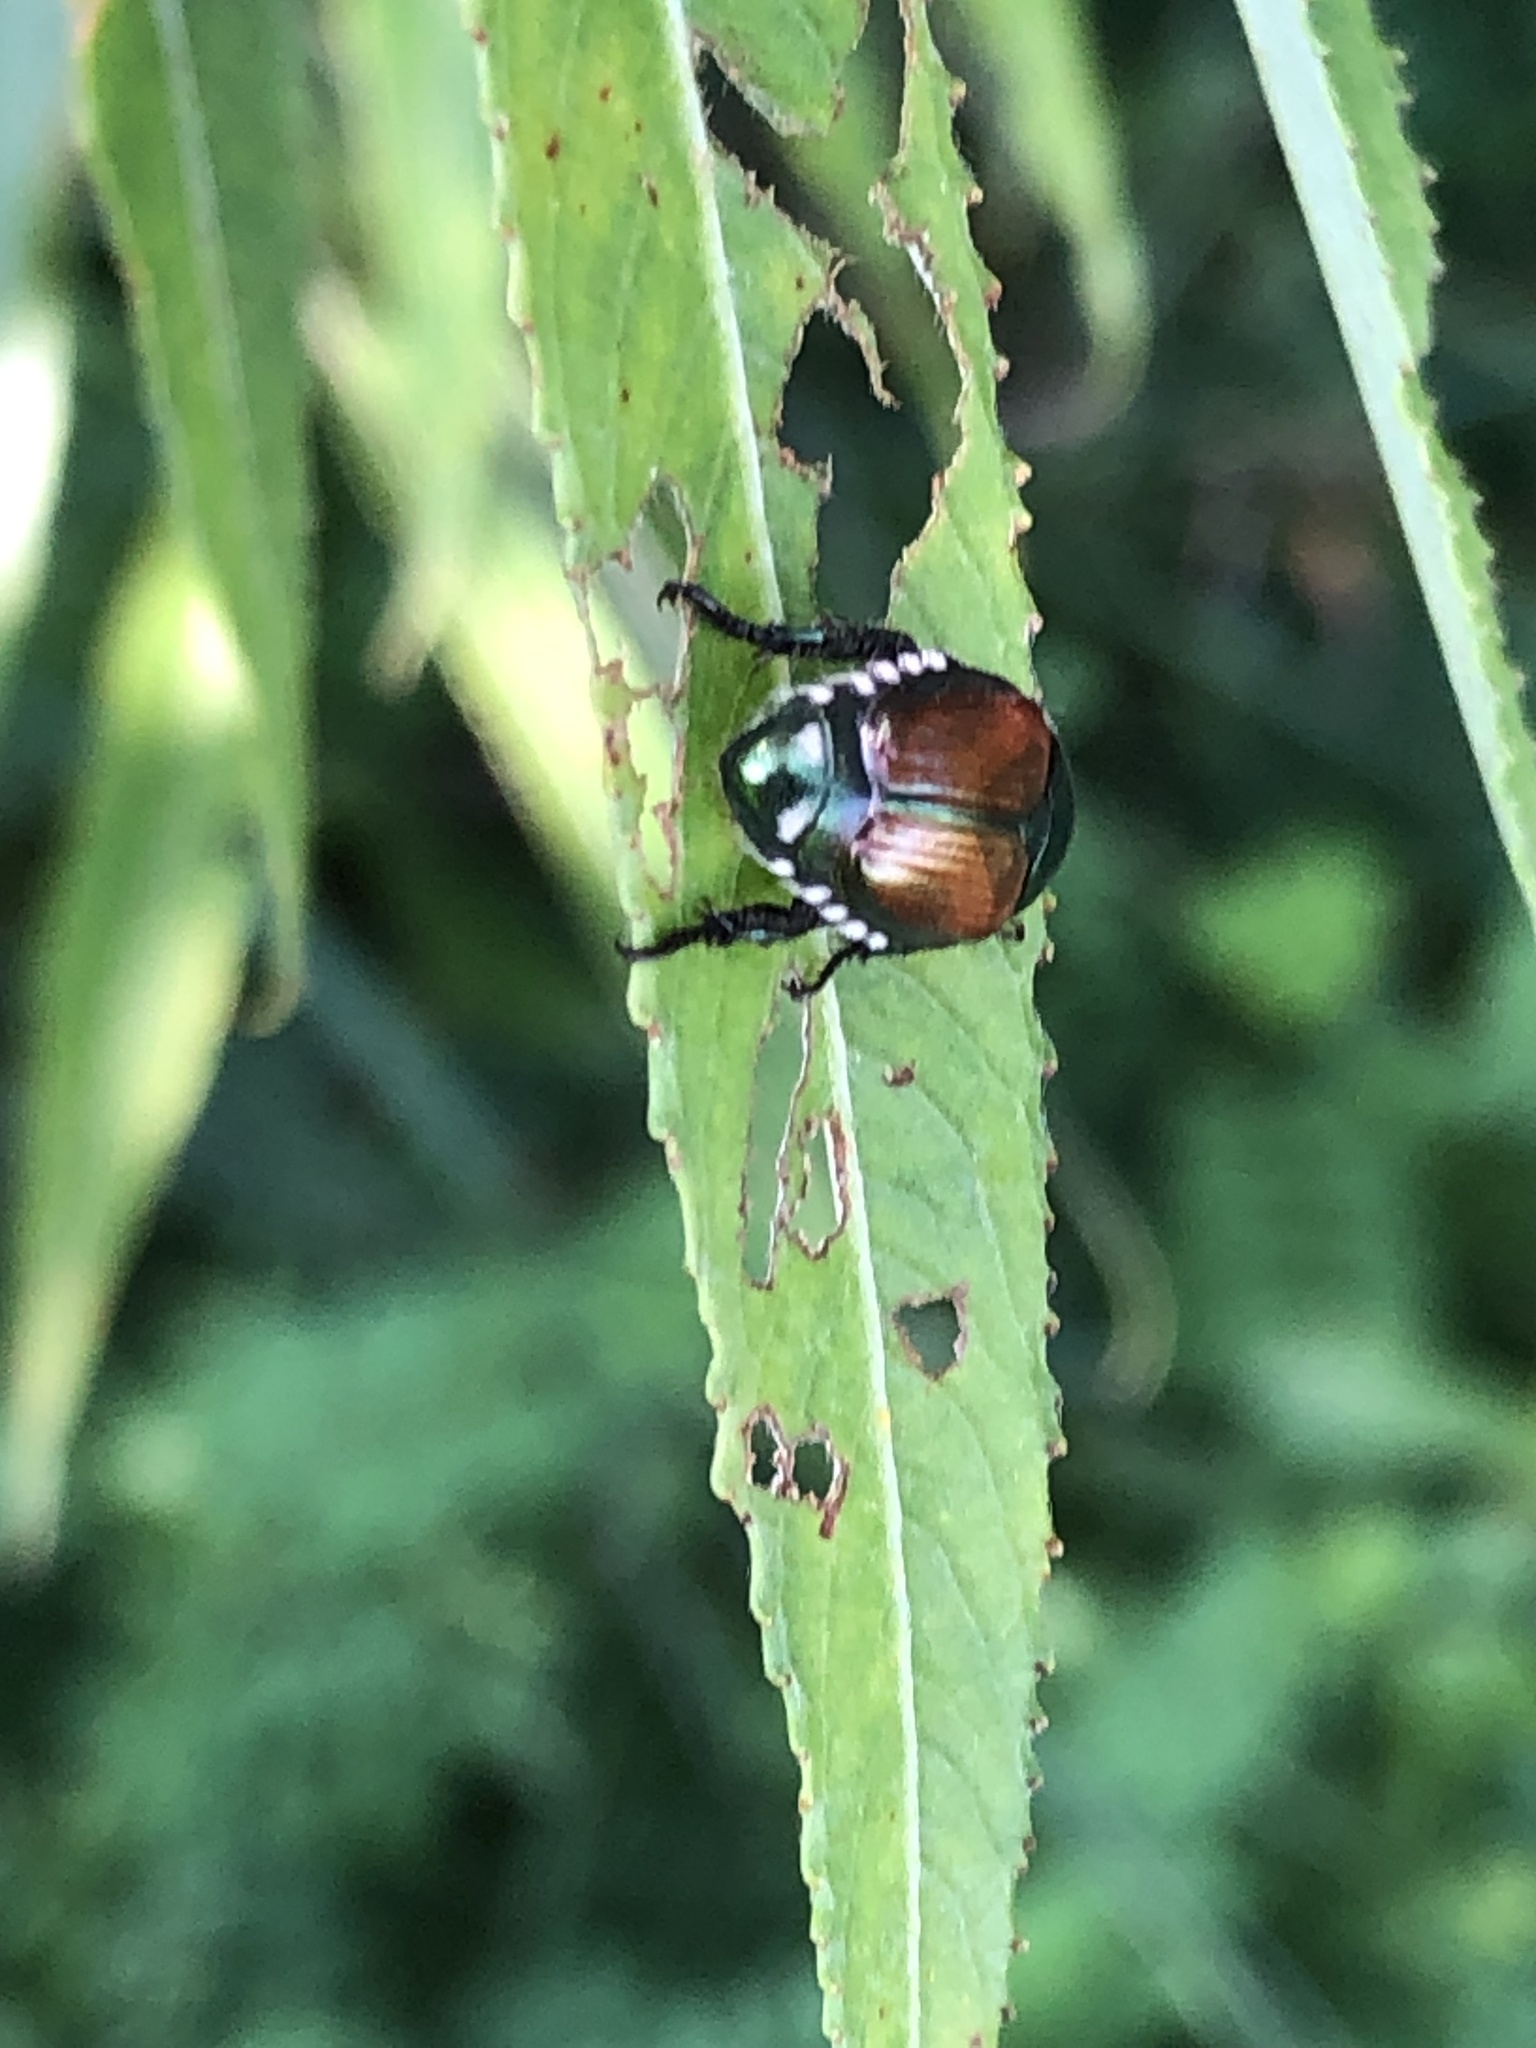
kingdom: Animalia
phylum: Arthropoda
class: Insecta
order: Coleoptera
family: Scarabaeidae
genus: Popillia
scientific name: Popillia japonica
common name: Japanese beetle
